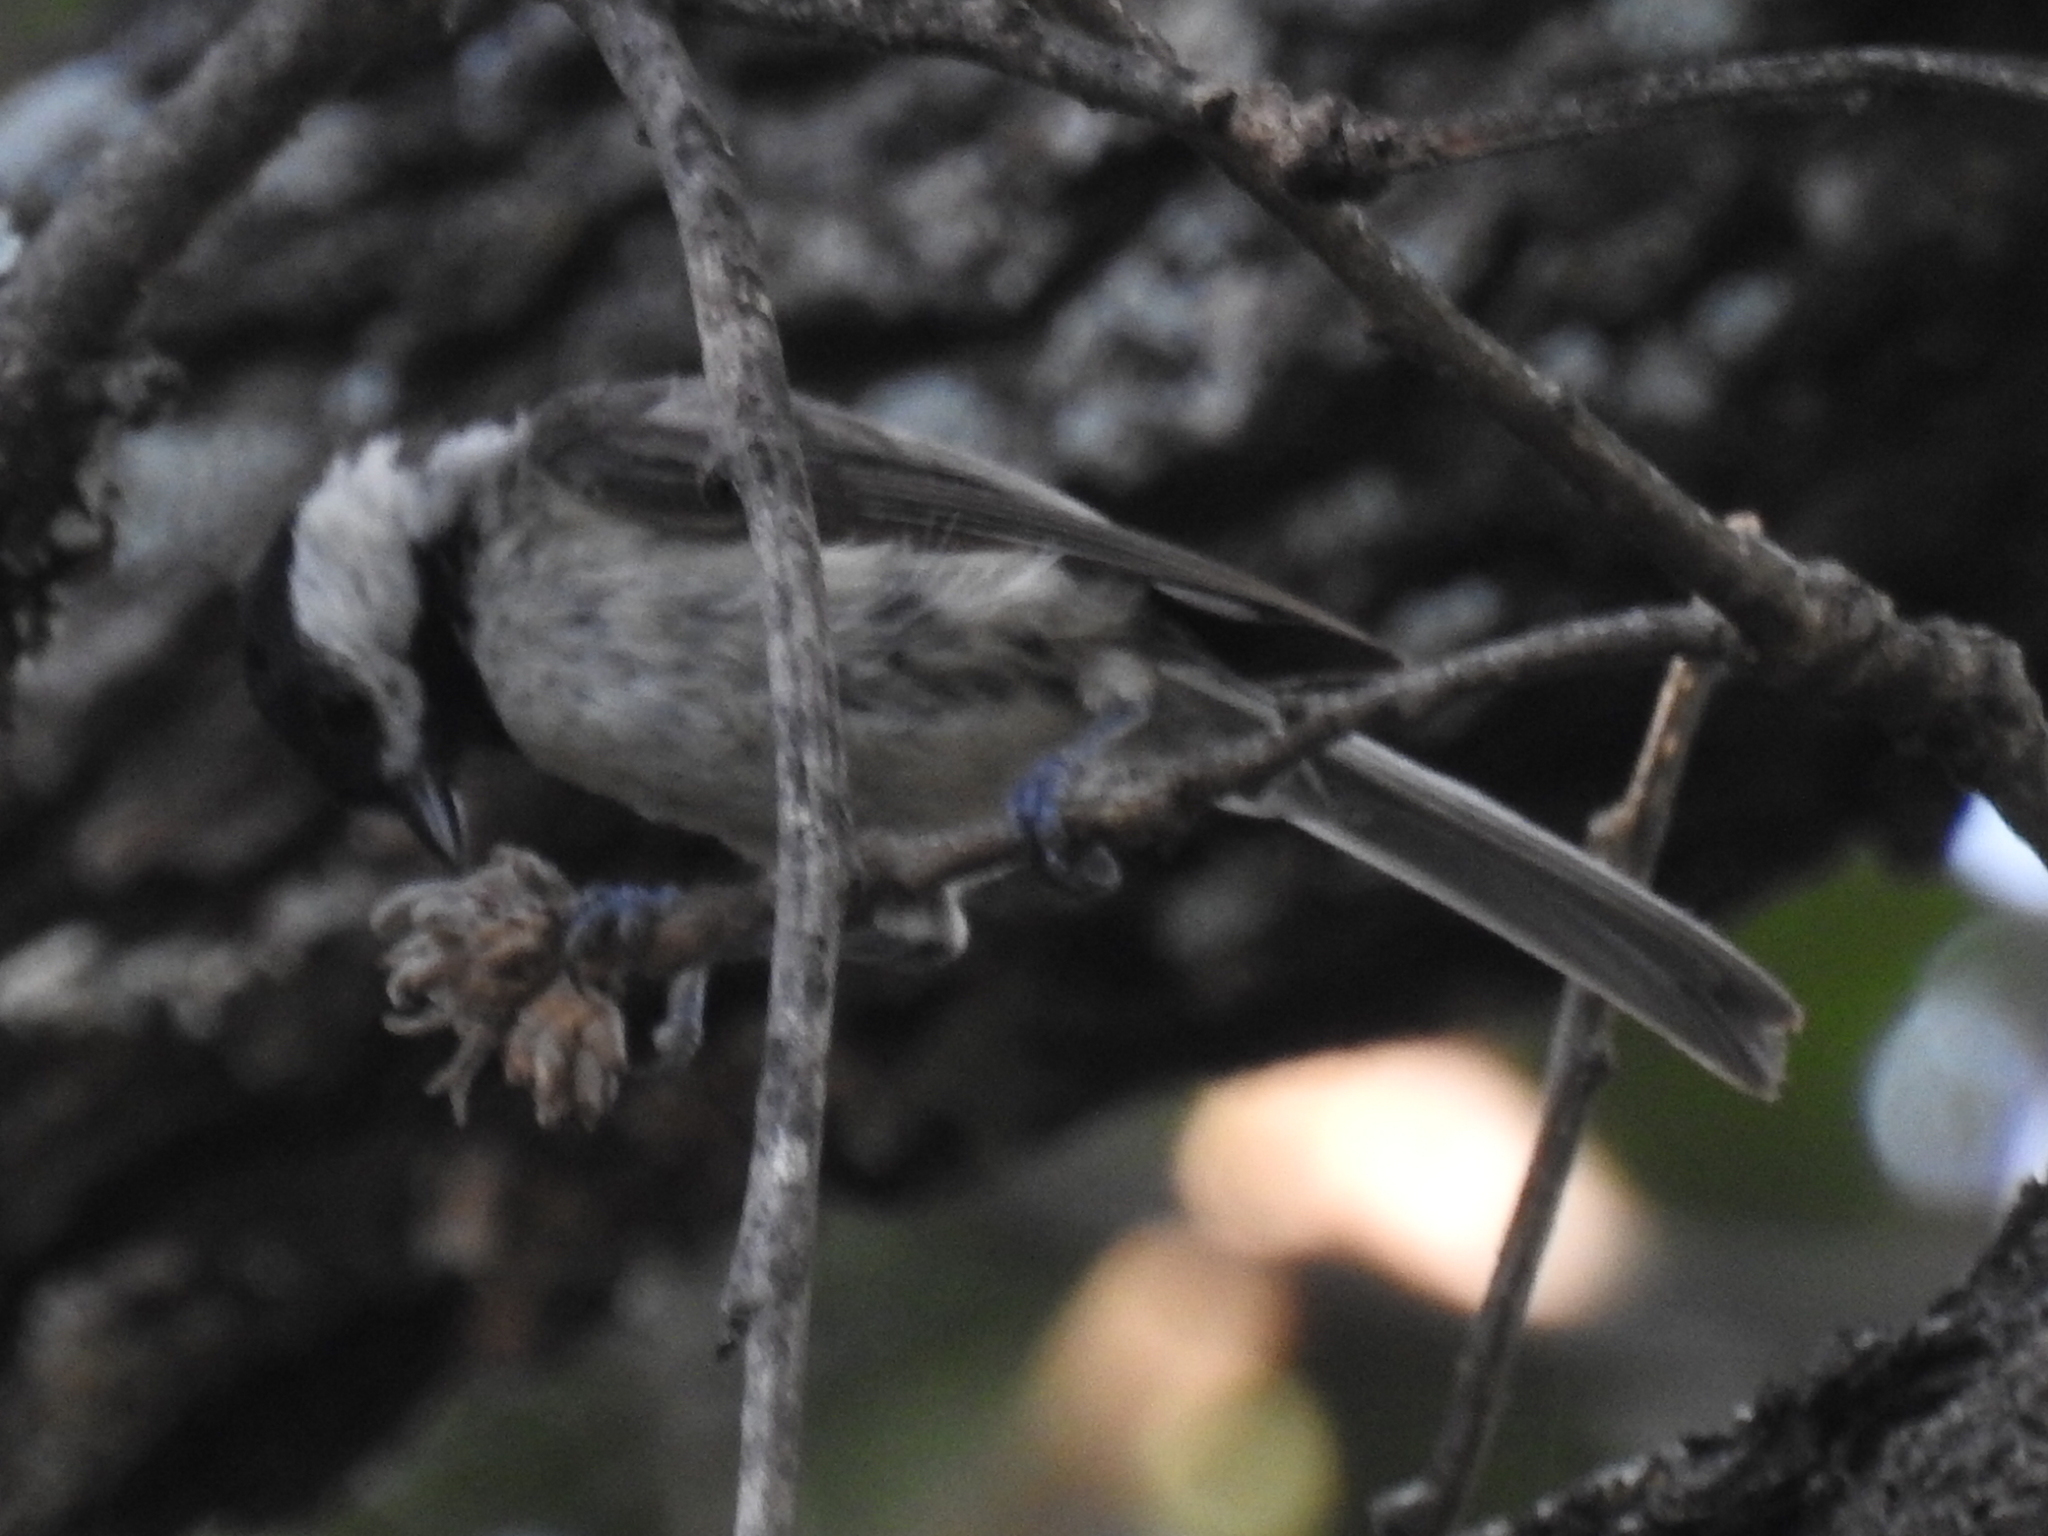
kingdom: Animalia
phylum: Chordata
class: Aves
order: Passeriformes
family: Paridae
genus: Poecile
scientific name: Poecile carolinensis
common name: Carolina chickadee
